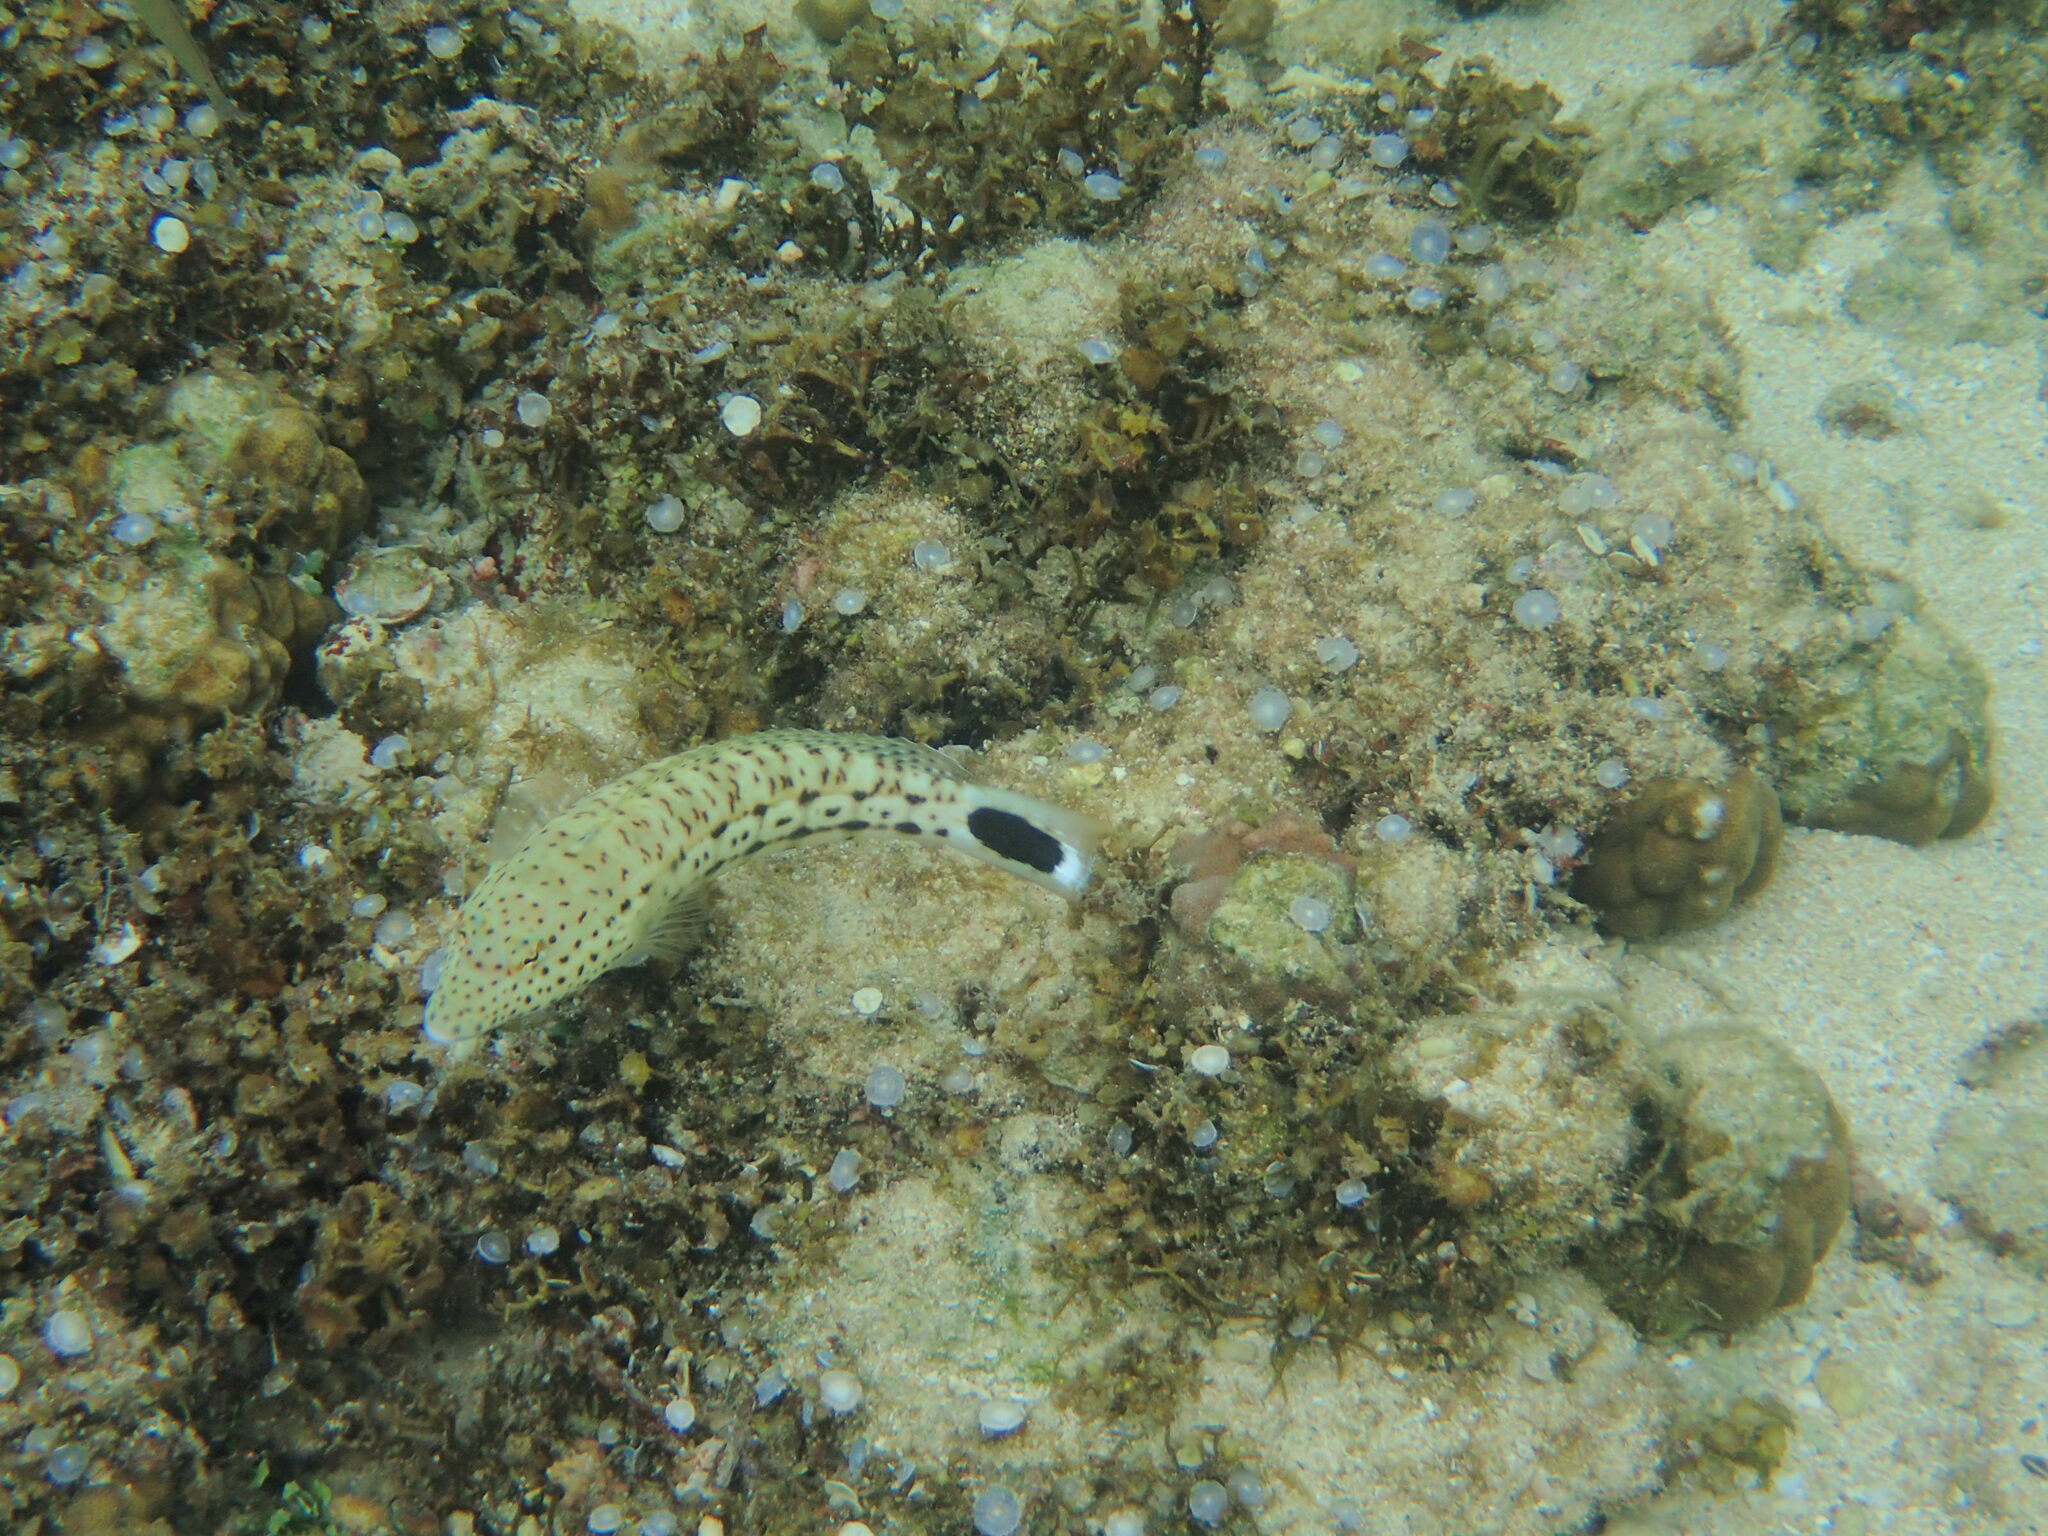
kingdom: Animalia
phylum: Chordata
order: Perciformes
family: Pinguipedidae
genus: Parapercis
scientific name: Parapercis pacifica
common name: Speckled sandperch
